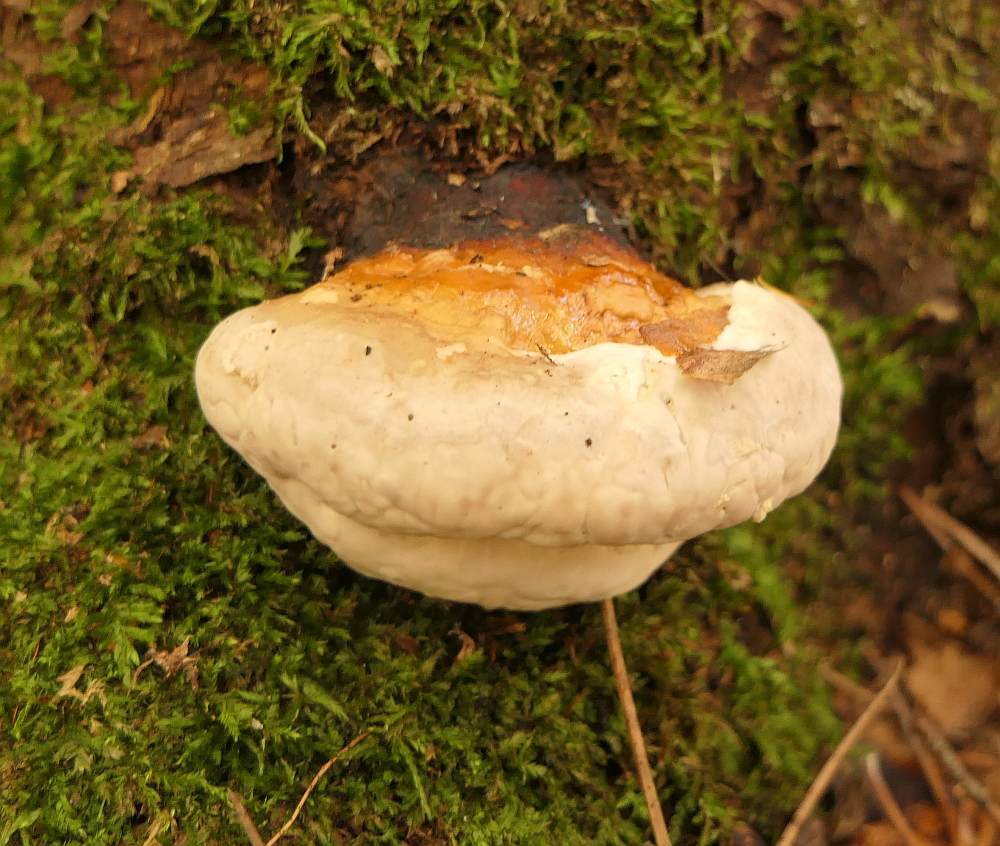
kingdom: Fungi
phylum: Basidiomycota
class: Agaricomycetes
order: Polyporales
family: Fomitopsidaceae
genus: Fomitopsis
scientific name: Fomitopsis mounceae
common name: Northern red belt
